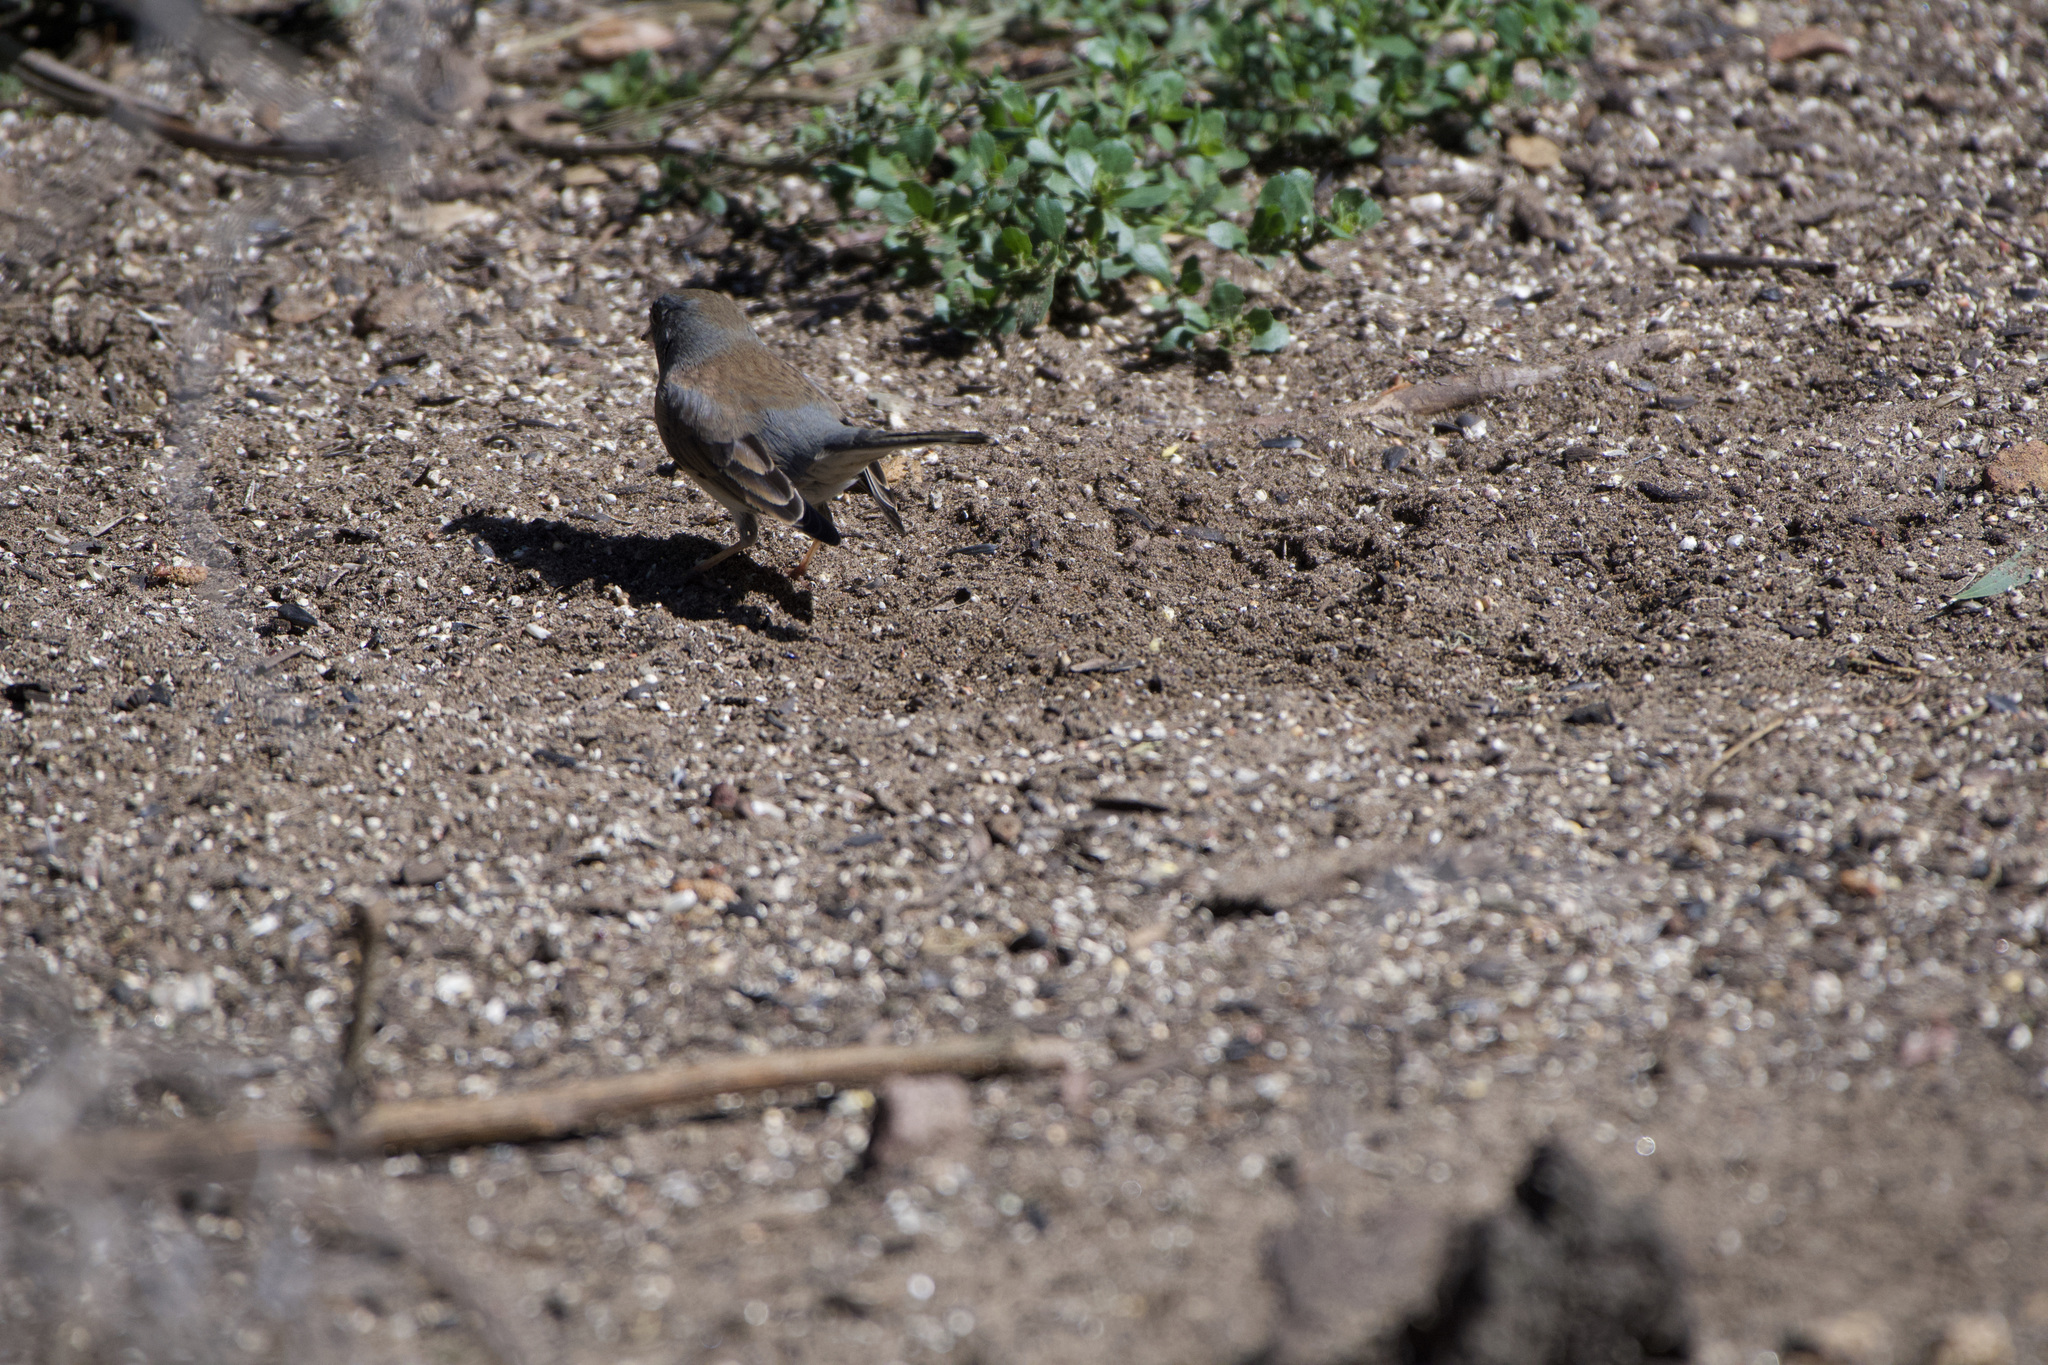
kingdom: Animalia
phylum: Chordata
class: Aves
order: Passeriformes
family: Passerellidae
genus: Junco
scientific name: Junco hyemalis
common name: Dark-eyed junco
